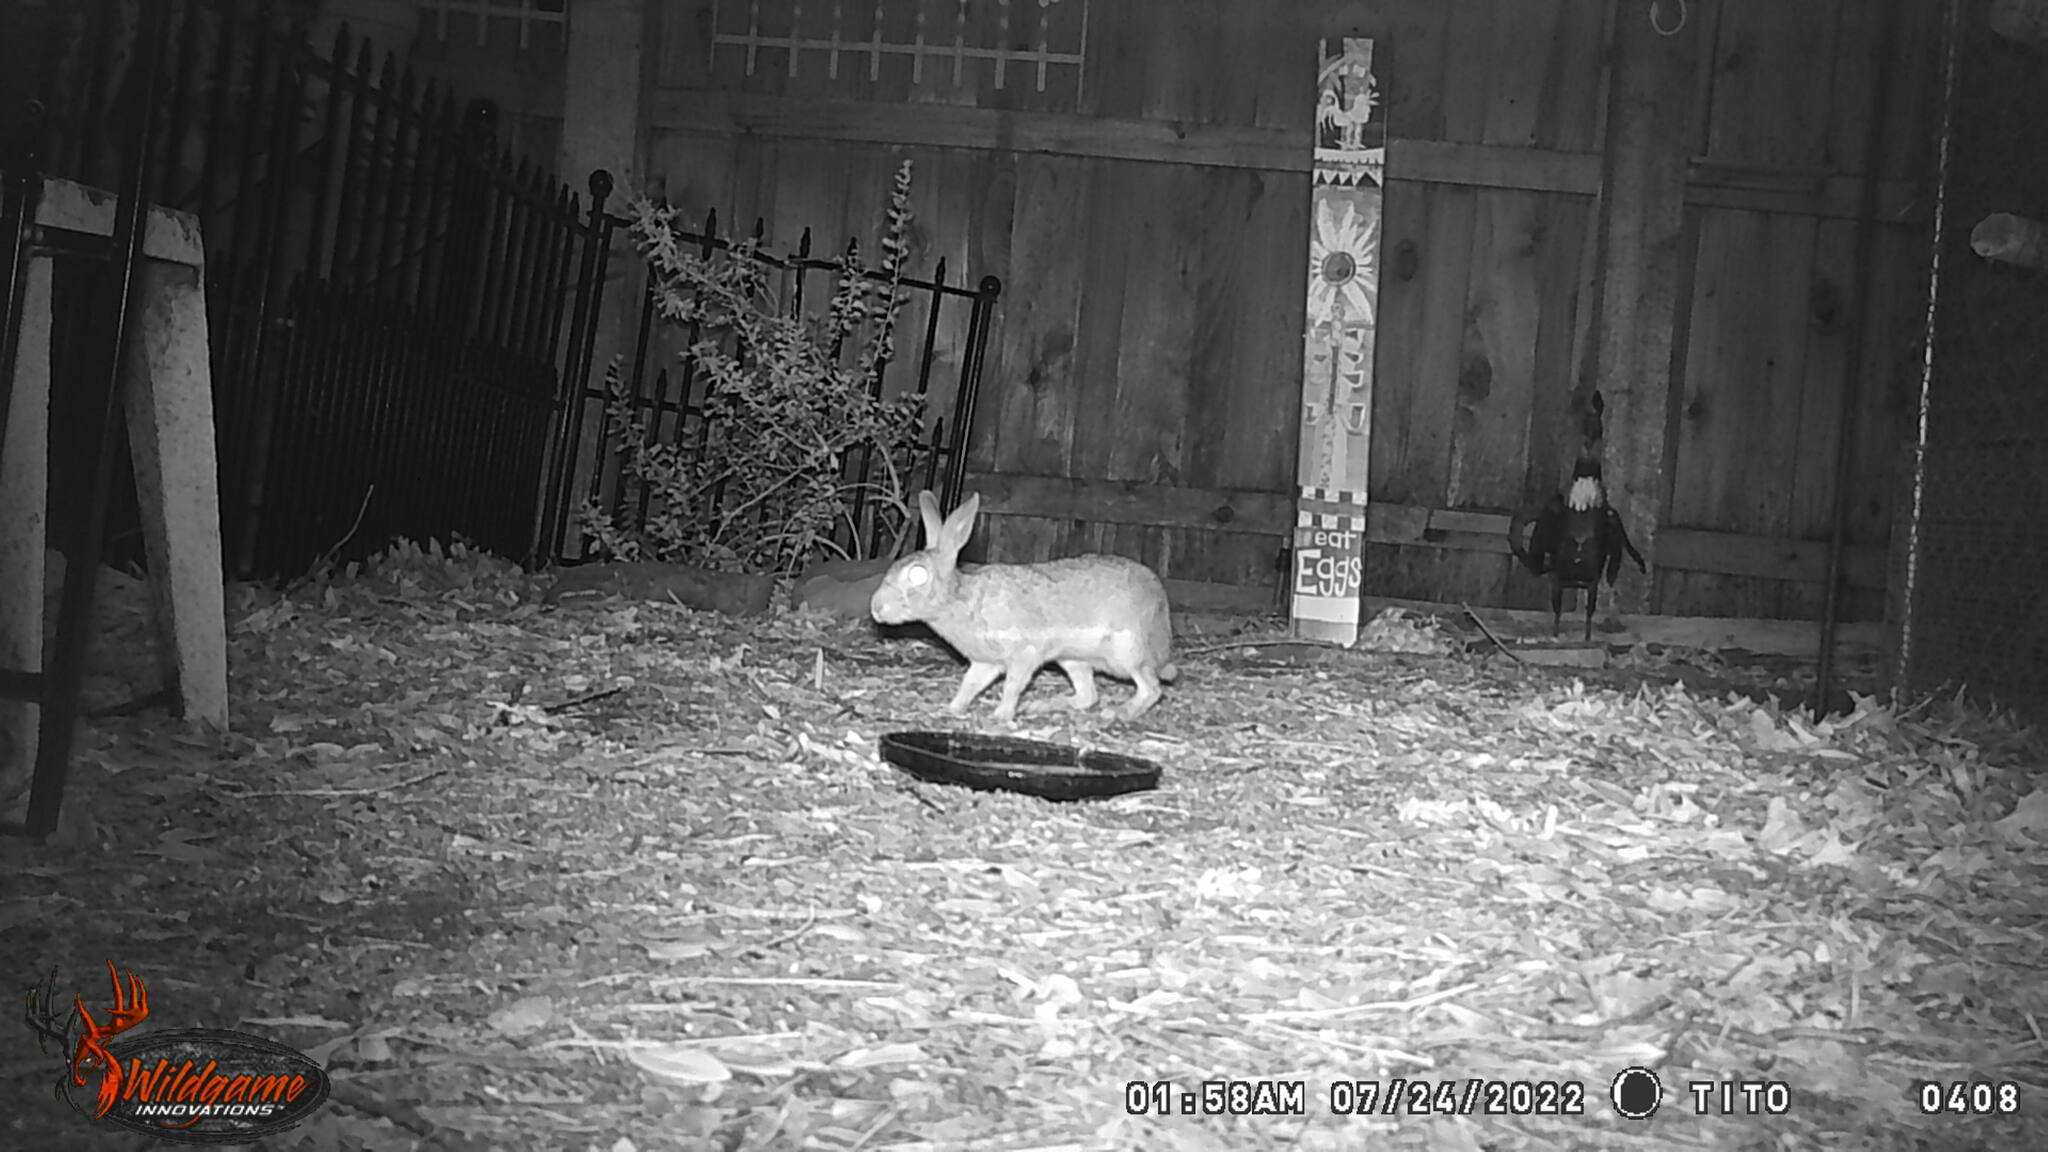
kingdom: Animalia
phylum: Chordata
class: Mammalia
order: Lagomorpha
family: Leporidae
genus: Sylvilagus
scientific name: Sylvilagus floridanus
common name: Eastern cottontail
